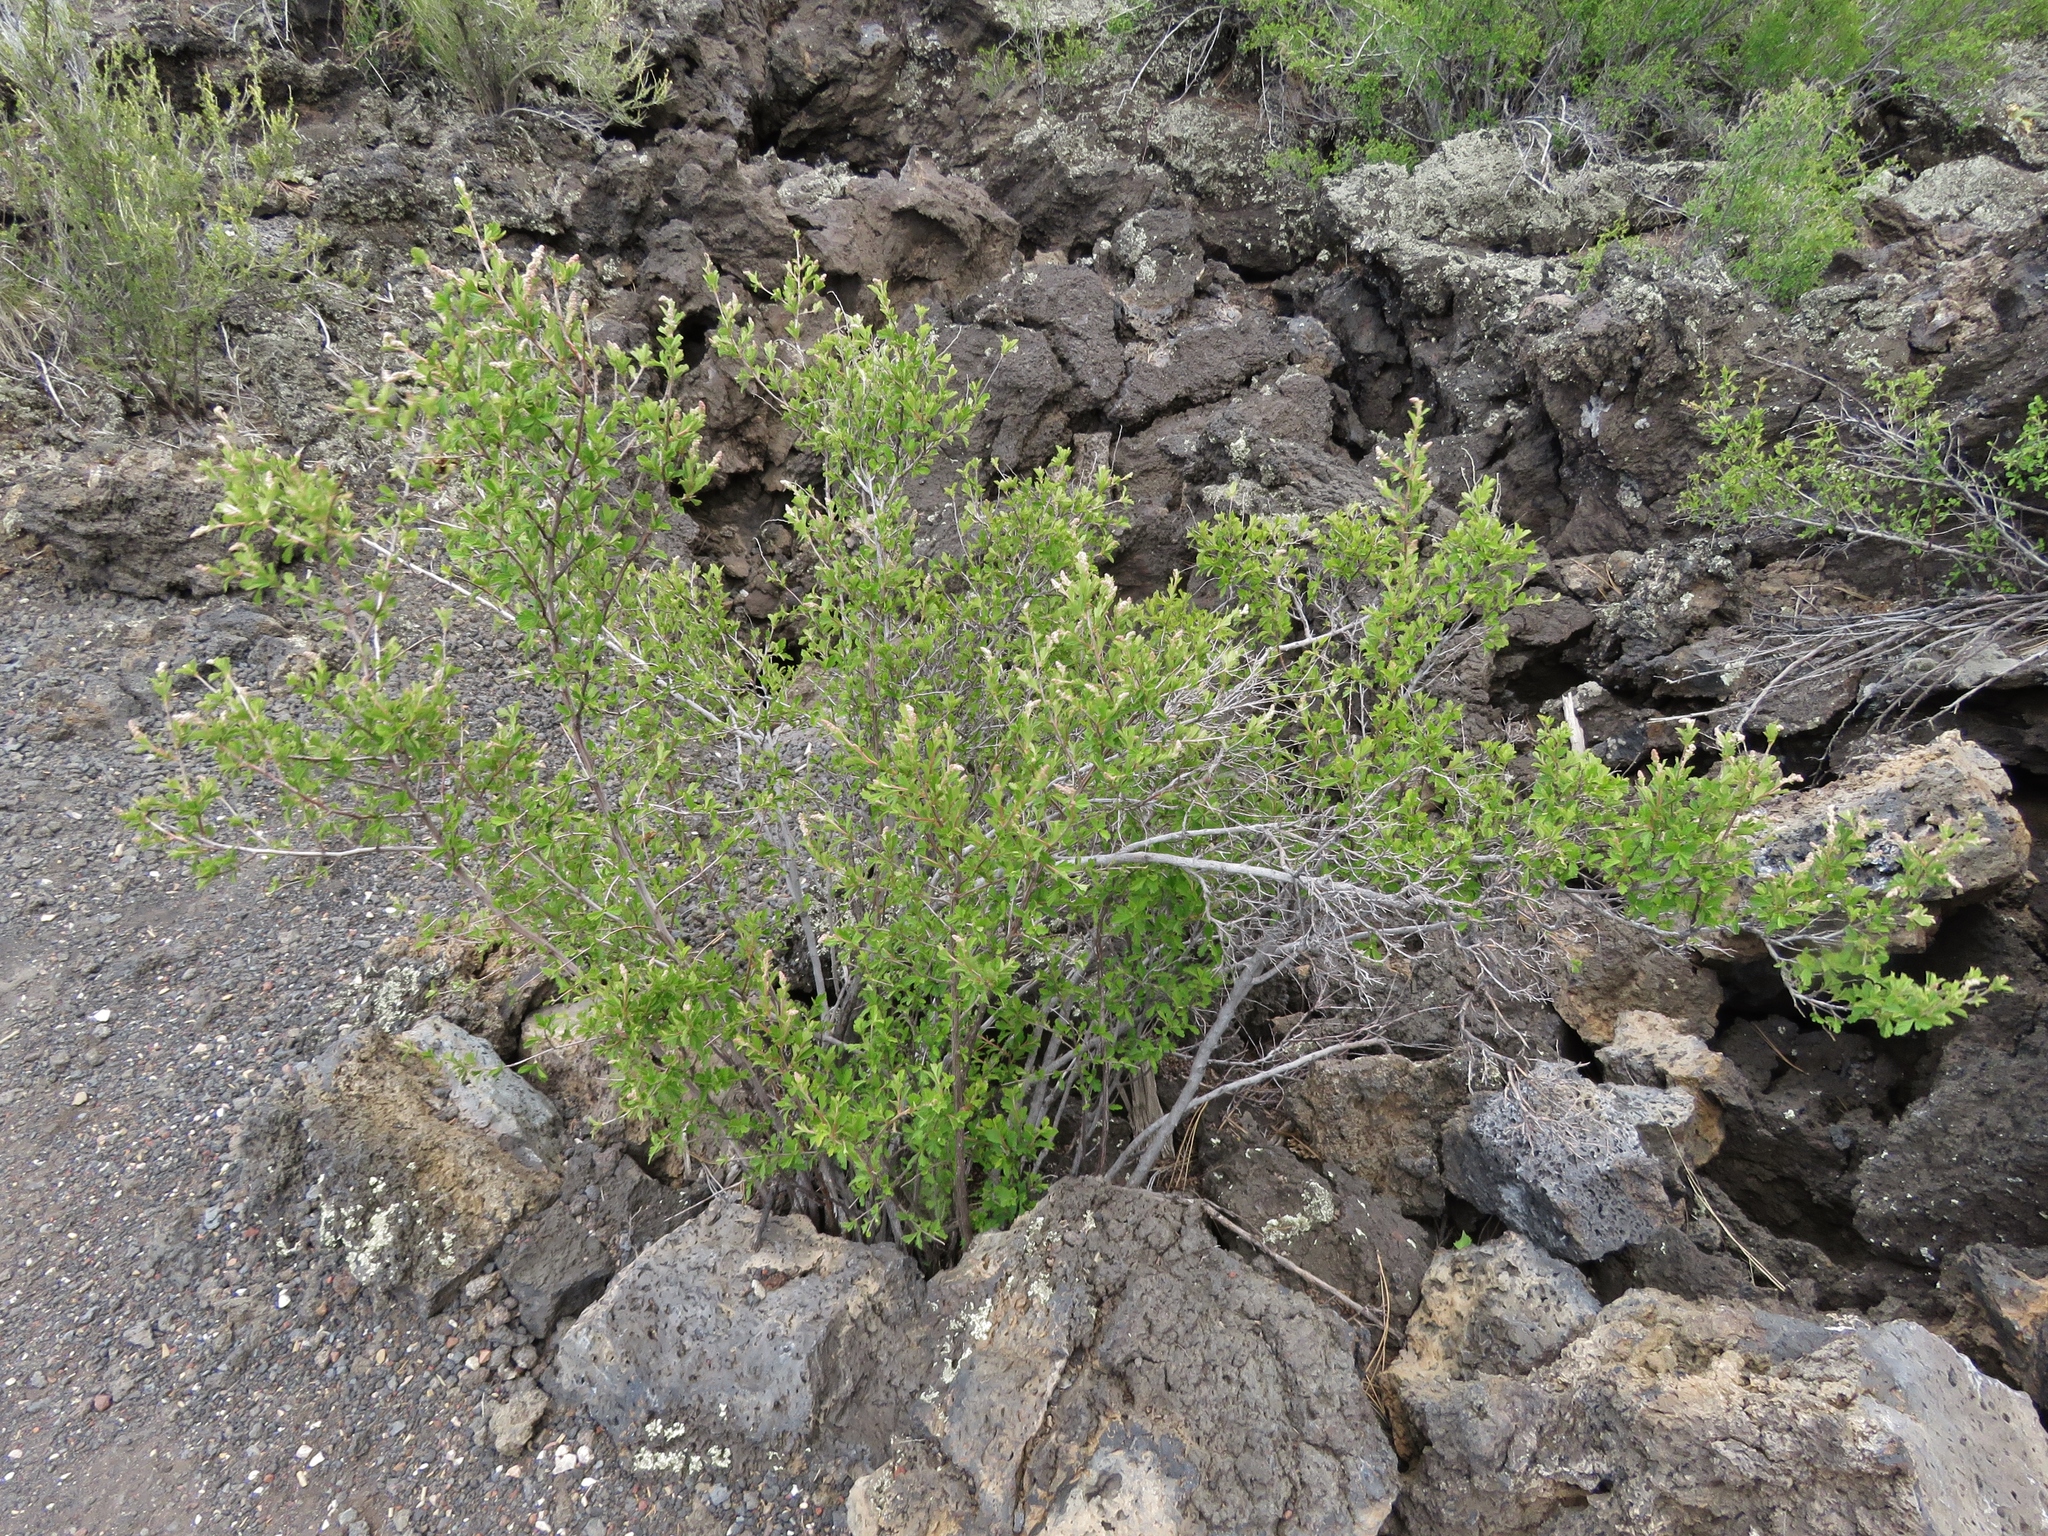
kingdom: Plantae
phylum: Tracheophyta
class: Magnoliopsida
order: Rosales
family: Rosaceae
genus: Holodiscus
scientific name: Holodiscus discolor
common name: Oceanspray
